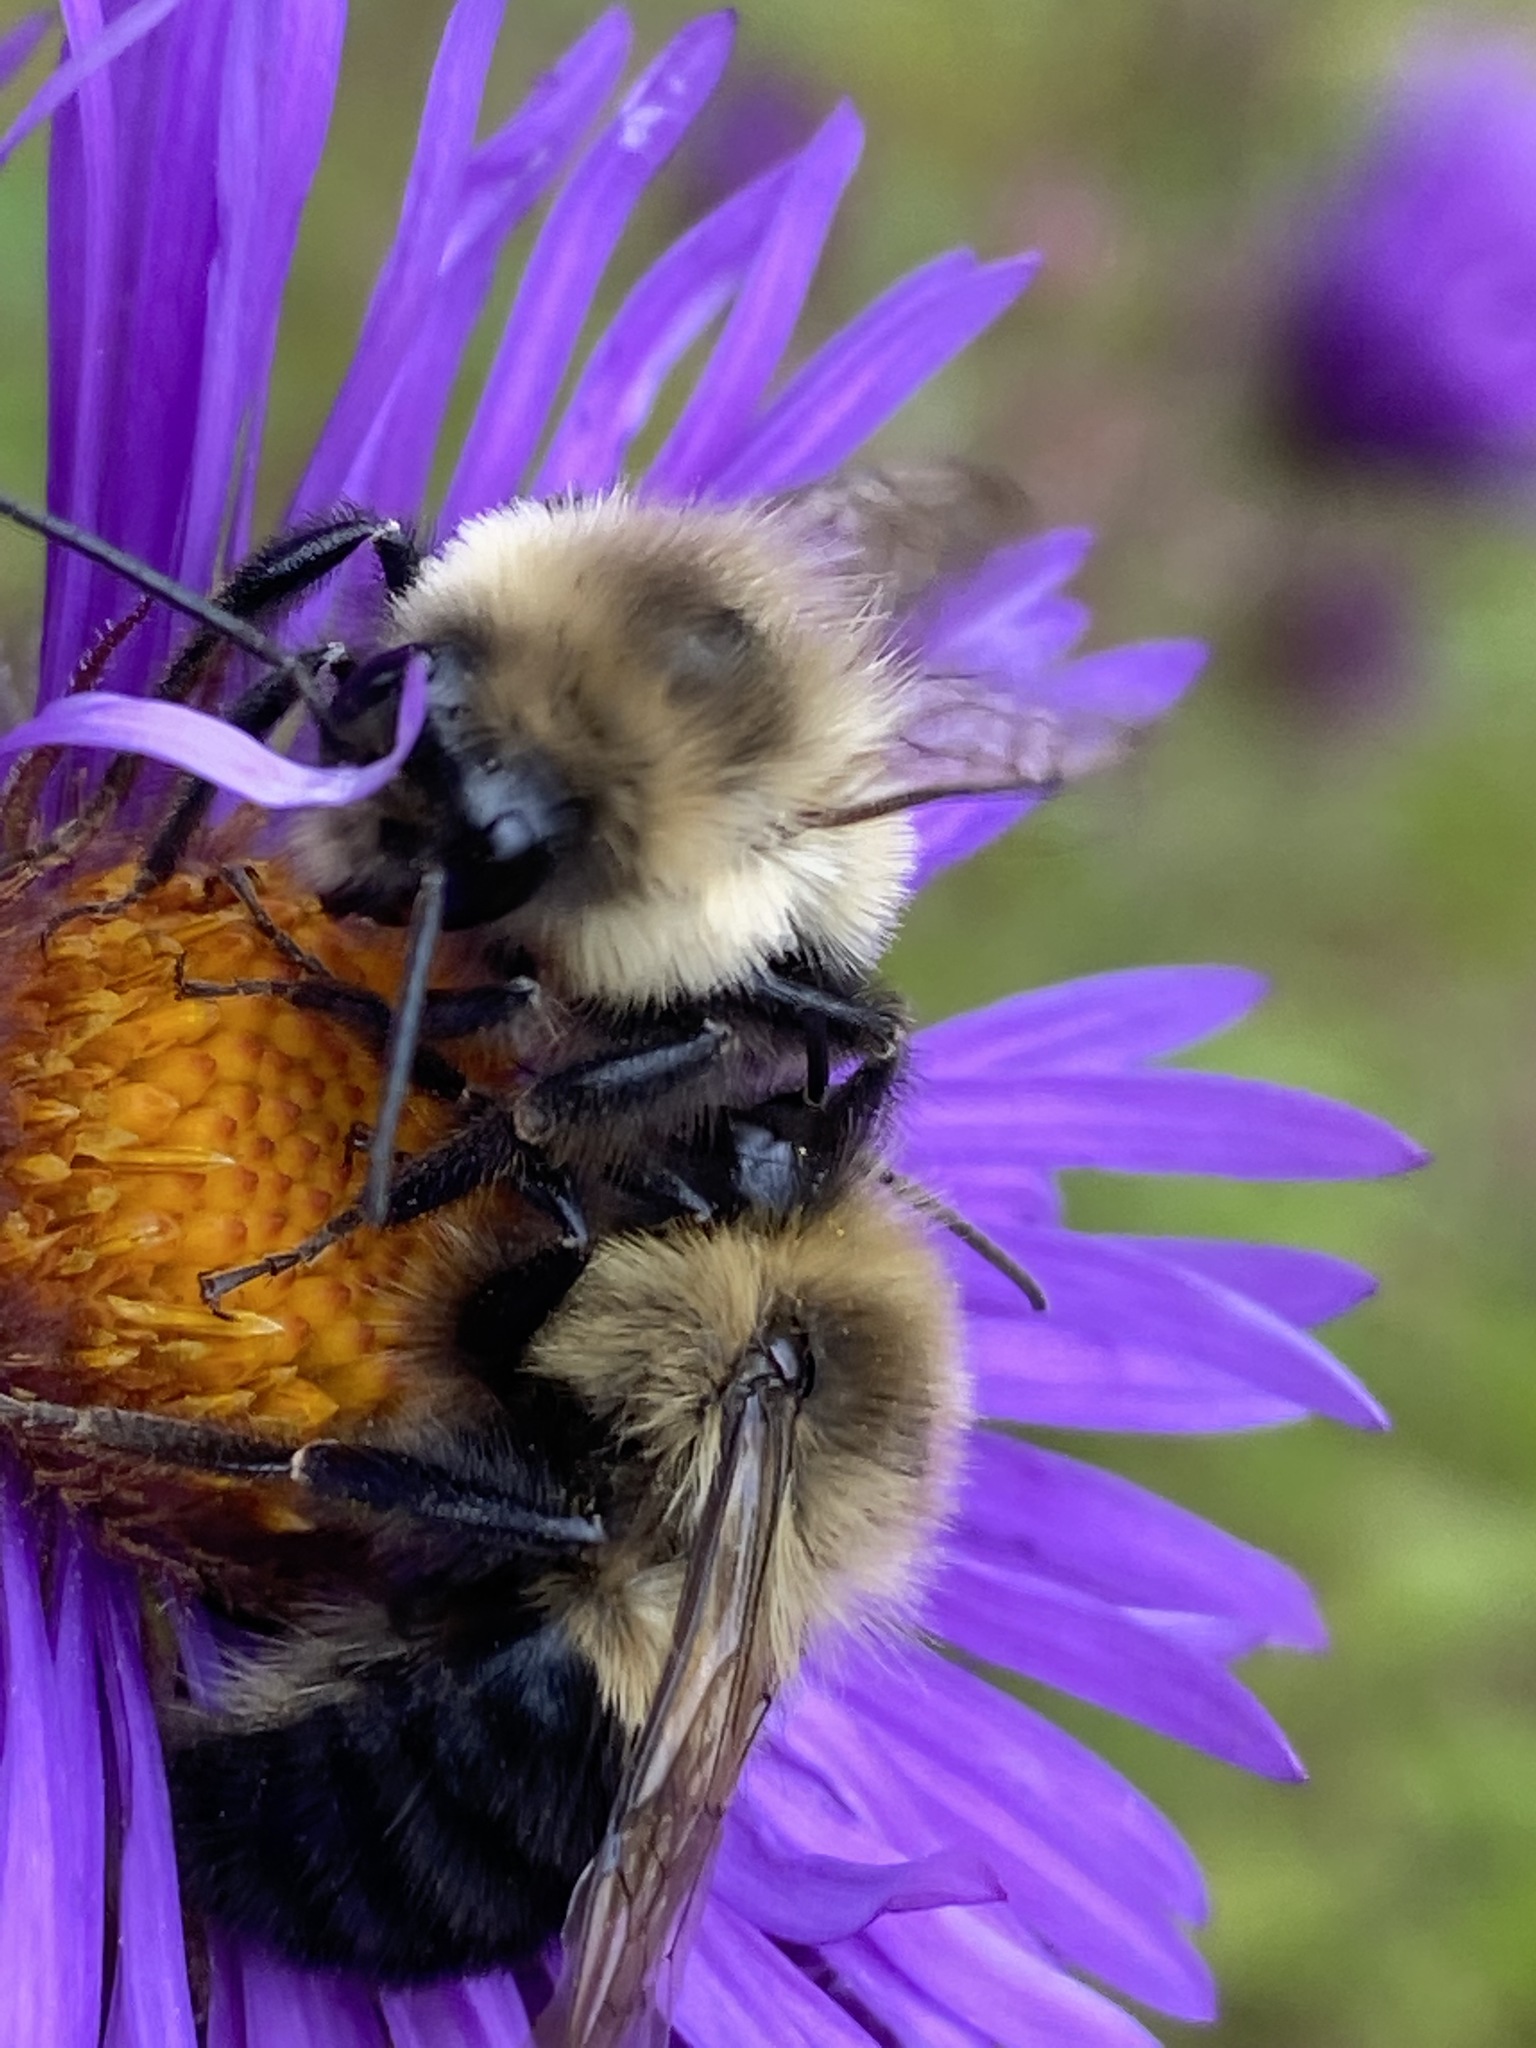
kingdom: Plantae
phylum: Tracheophyta
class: Magnoliopsida
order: Asterales
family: Asteraceae
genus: Symphyotrichum
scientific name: Symphyotrichum novae-angliae
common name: Michaelmas daisy
